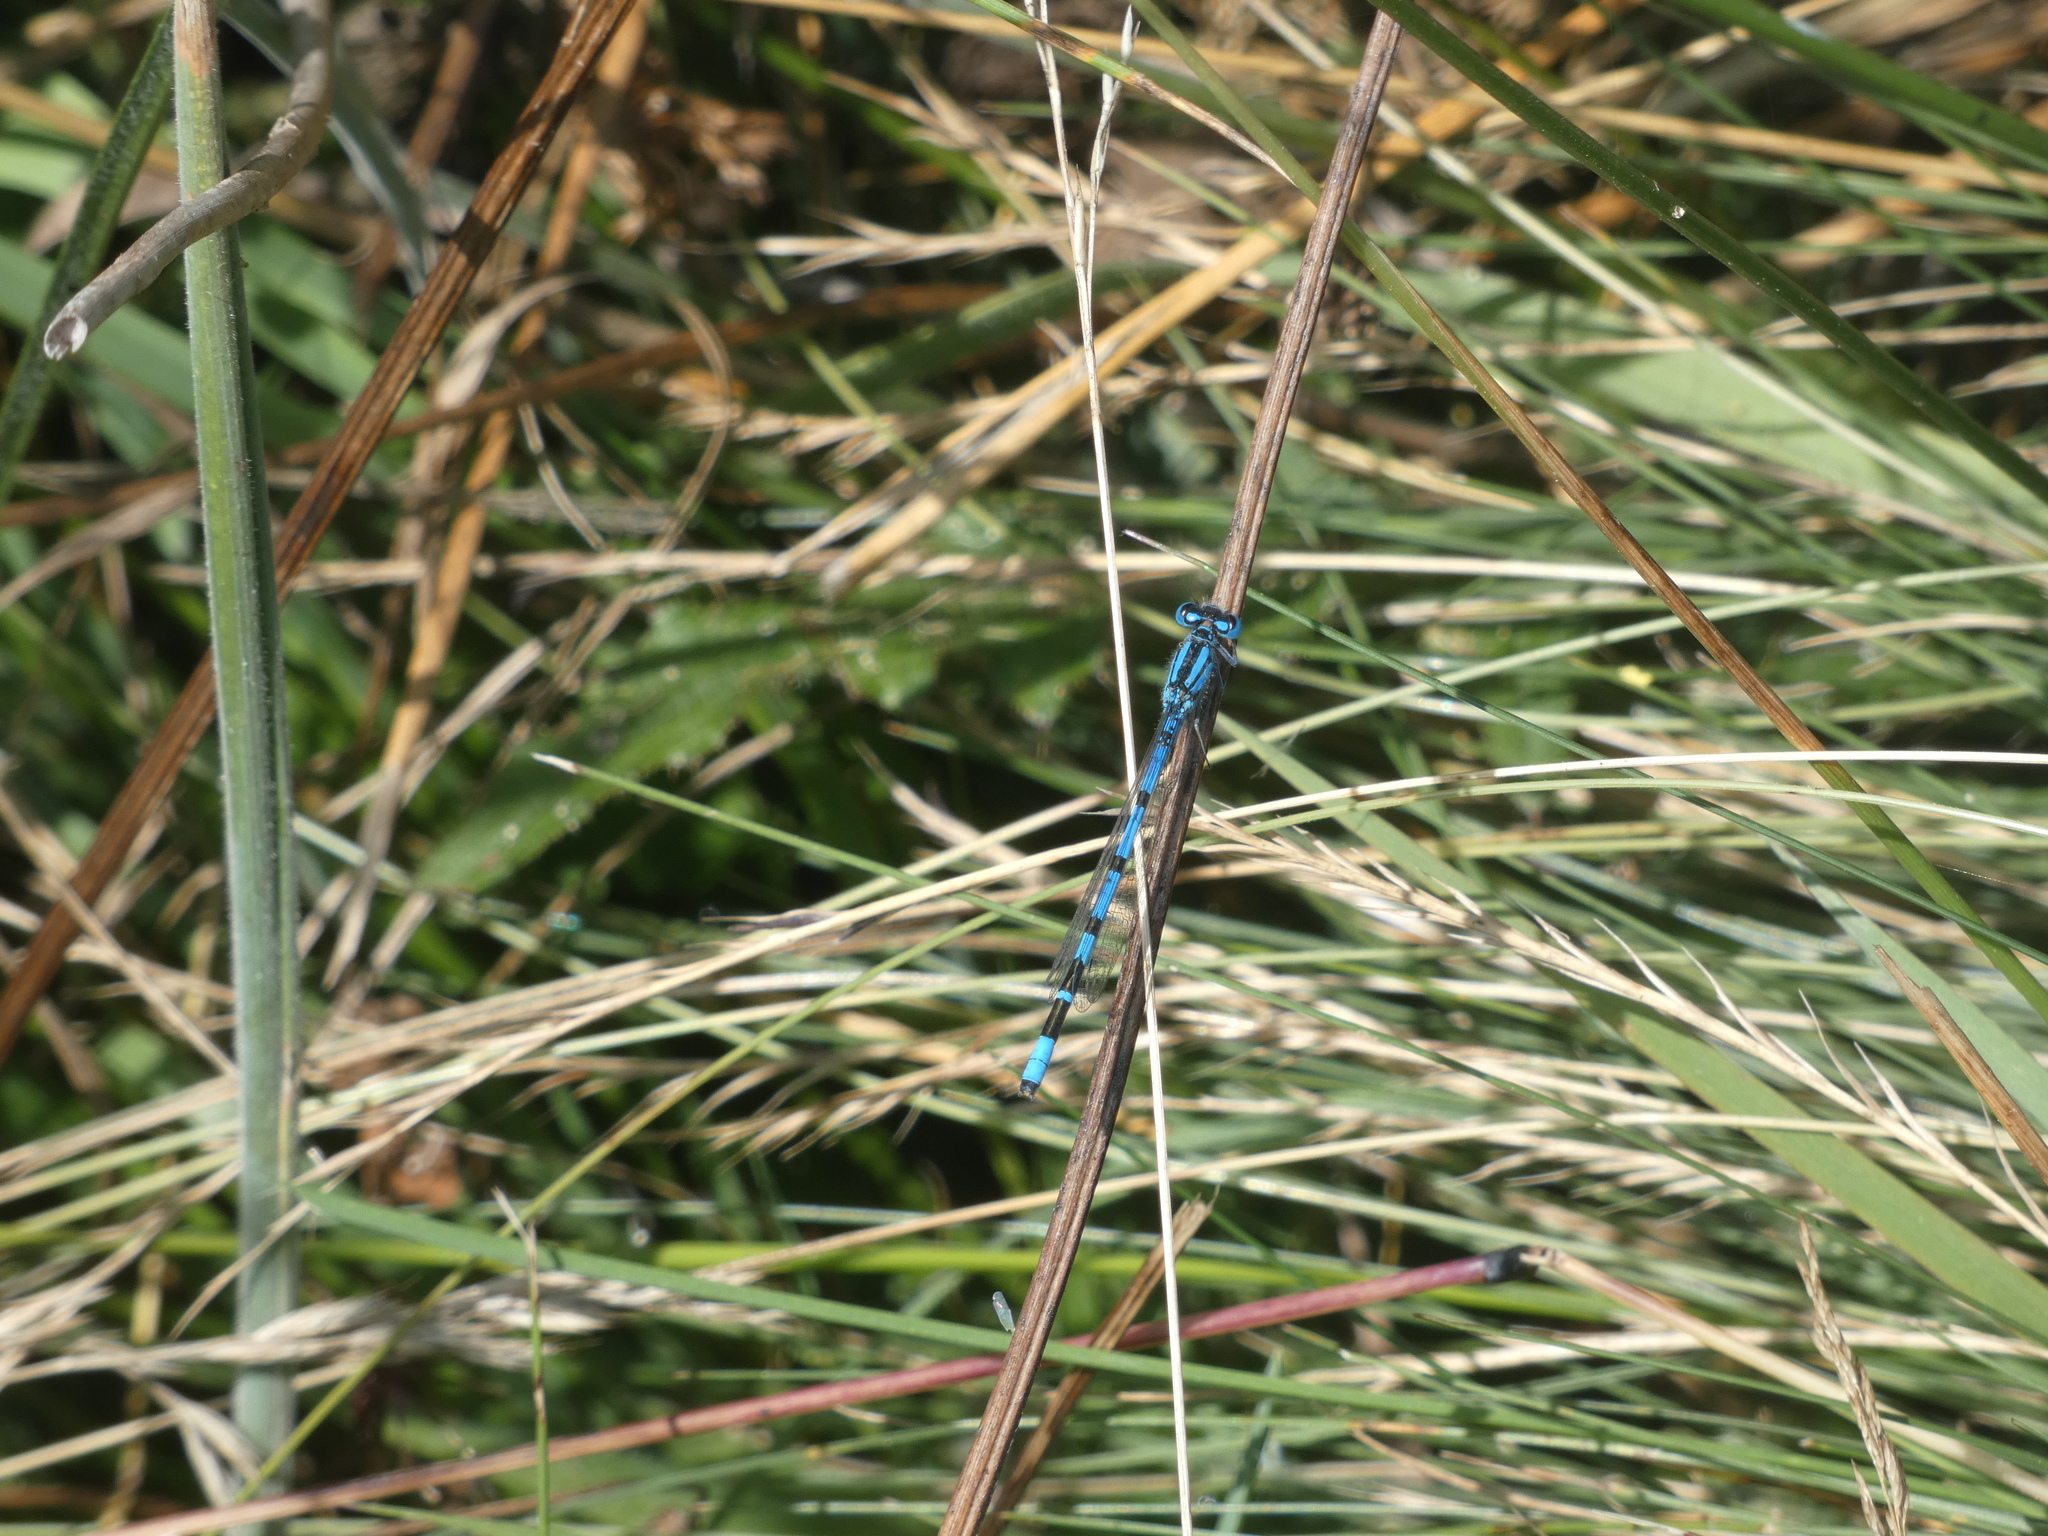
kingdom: Animalia
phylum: Arthropoda
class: Insecta
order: Odonata
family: Coenagrionidae
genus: Enallagma
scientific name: Enallagma cyathigerum
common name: Common blue damselfly
